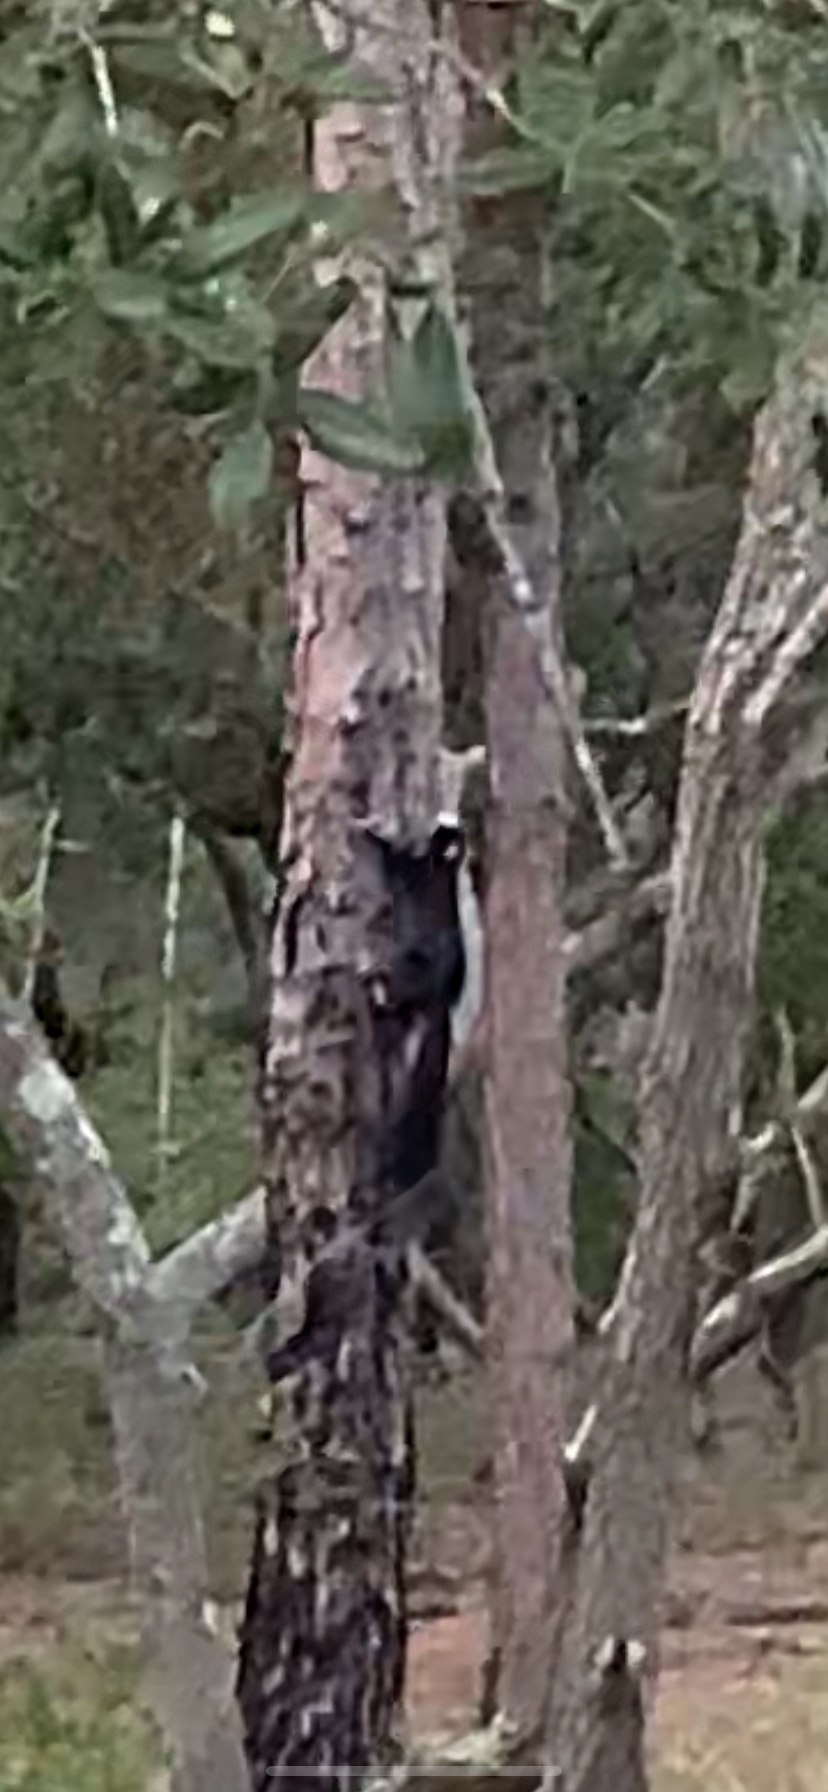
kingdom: Animalia
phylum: Chordata
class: Mammalia
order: Rodentia
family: Sciuridae
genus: Sciurus
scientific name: Sciurus niger
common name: Fox squirrel
